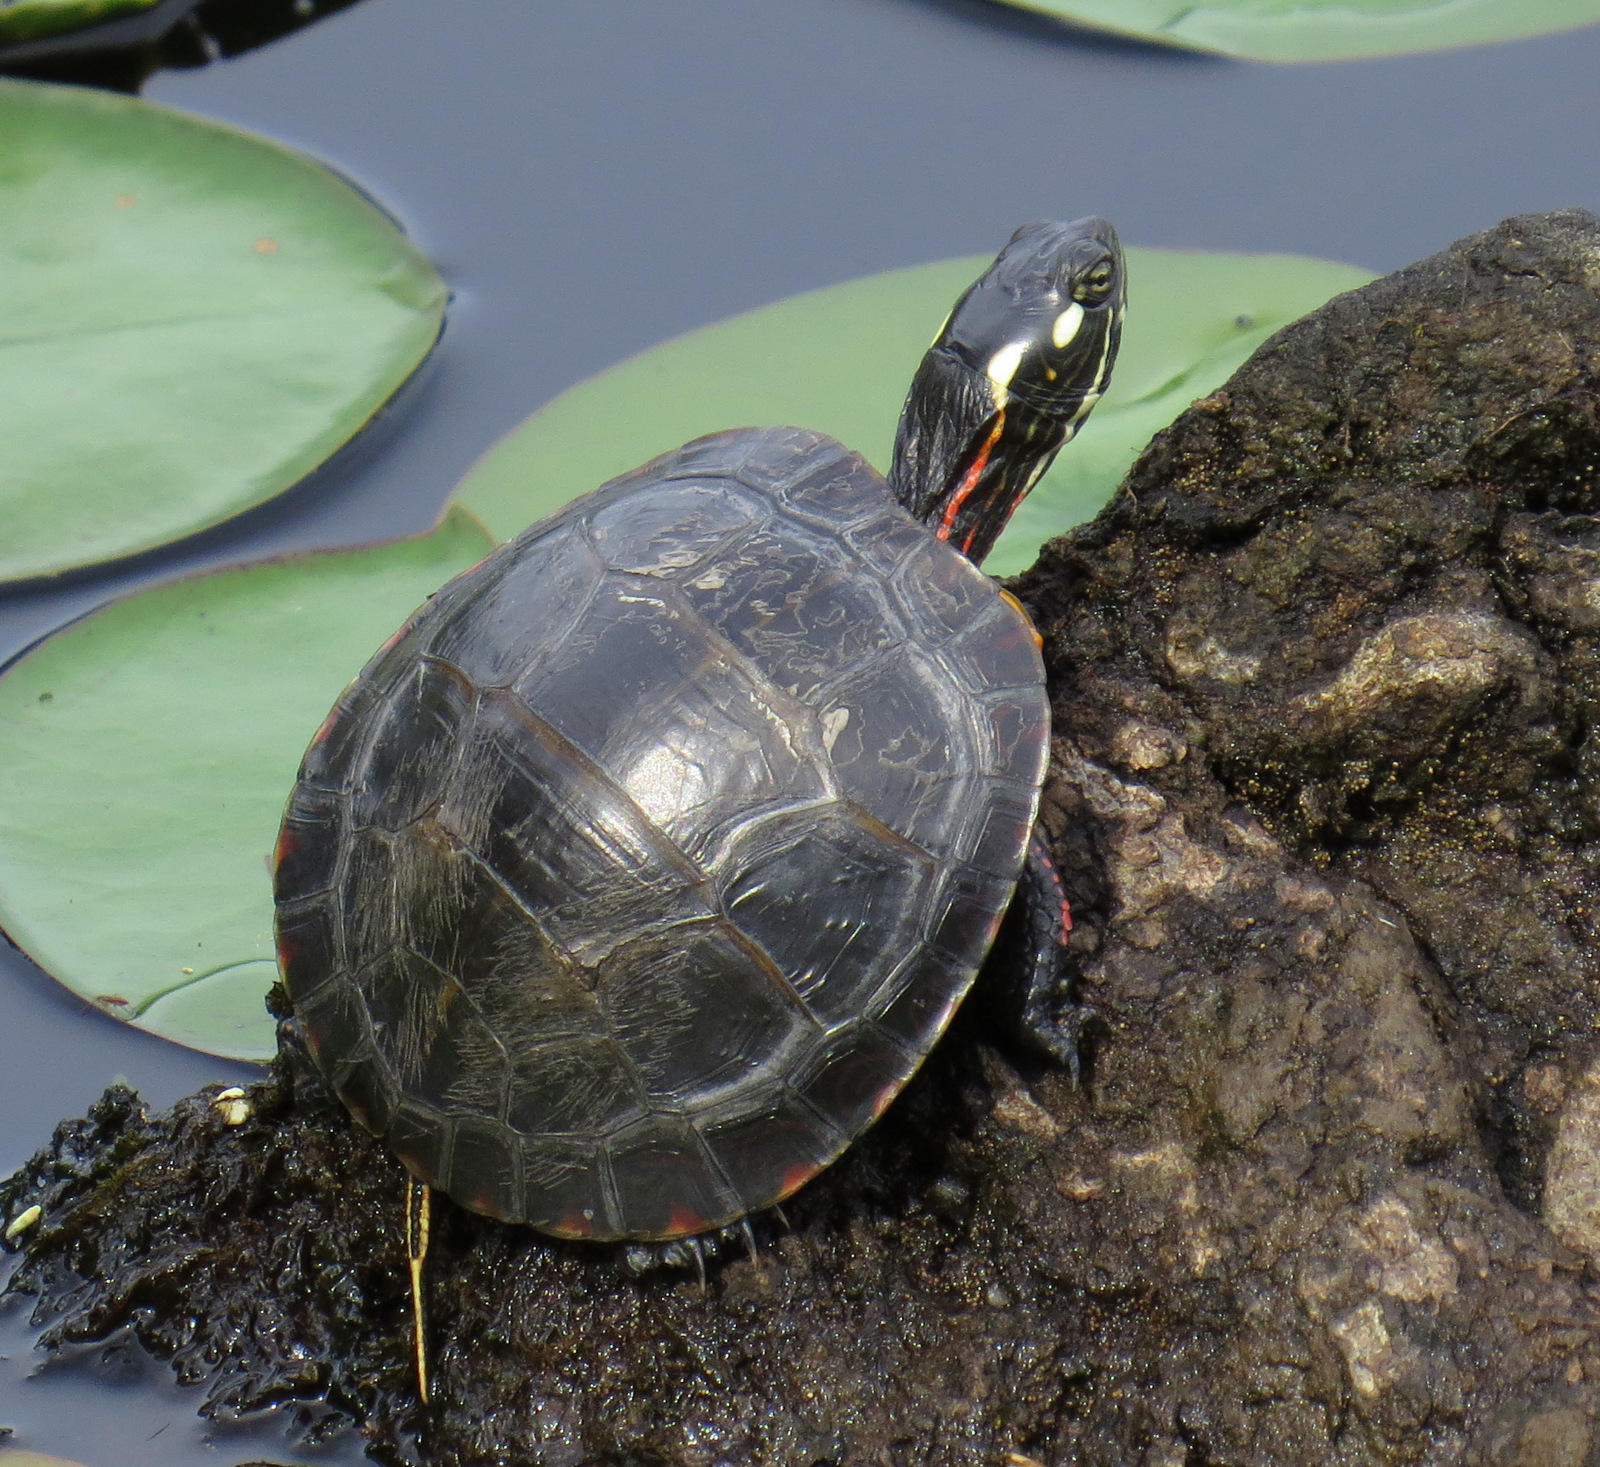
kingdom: Animalia
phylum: Chordata
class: Testudines
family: Emydidae
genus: Chrysemys
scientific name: Chrysemys picta
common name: Painted turtle
